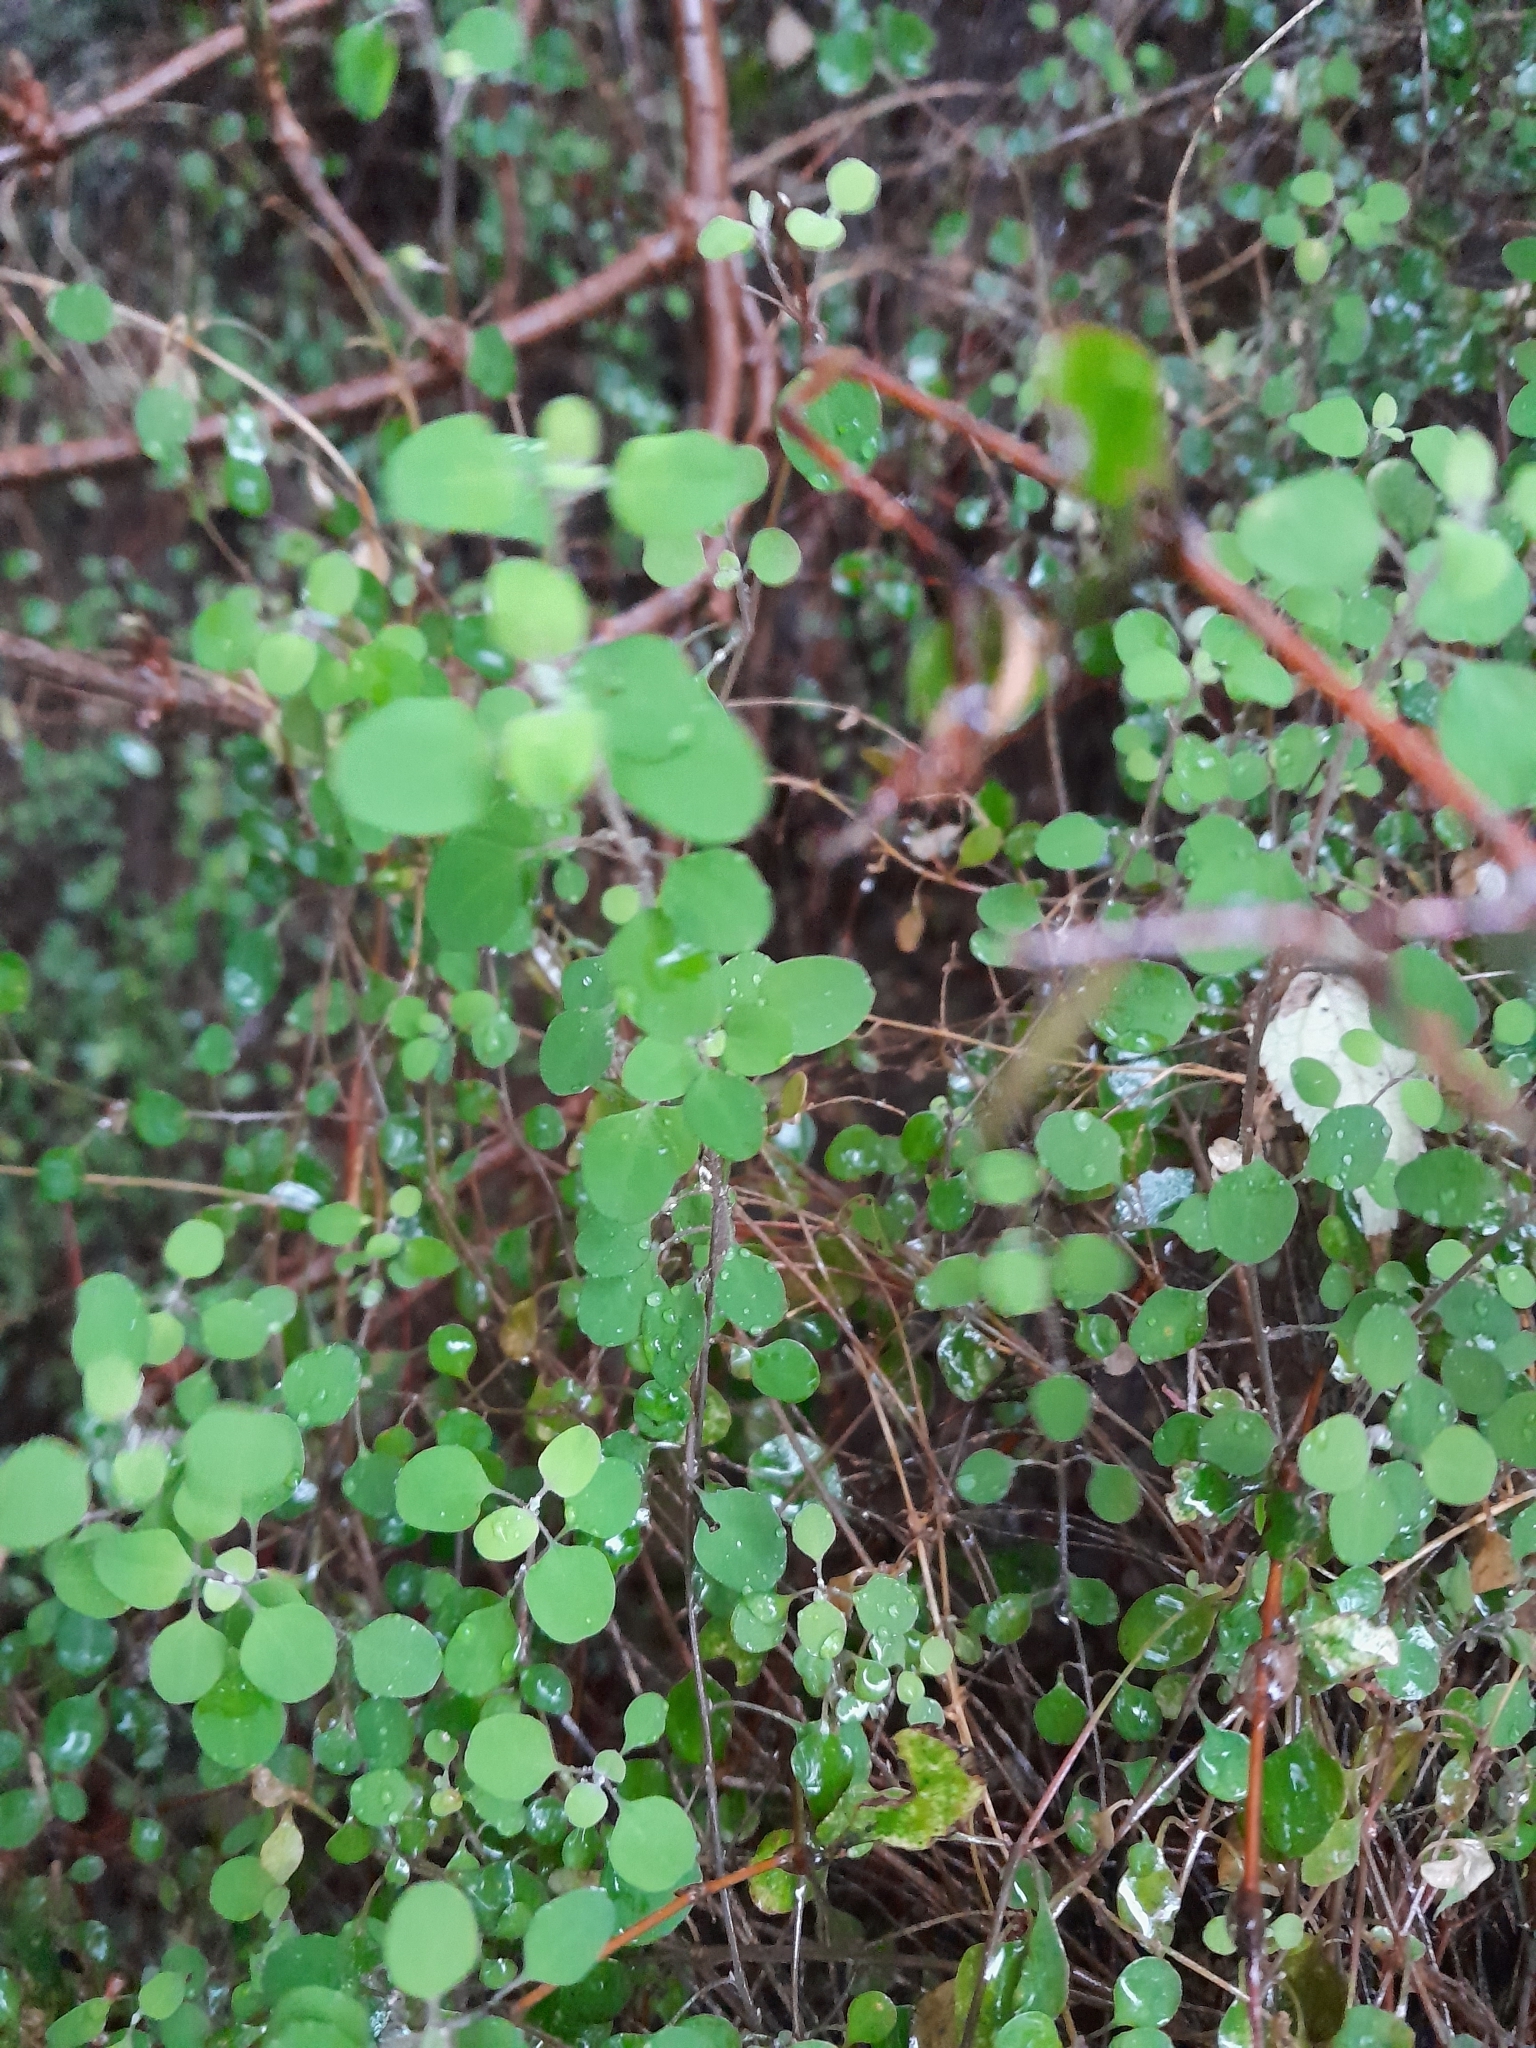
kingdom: Plantae
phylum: Tracheophyta
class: Magnoliopsida
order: Caryophyllales
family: Amaranthaceae
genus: Chenopodium
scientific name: Chenopodium allanii
